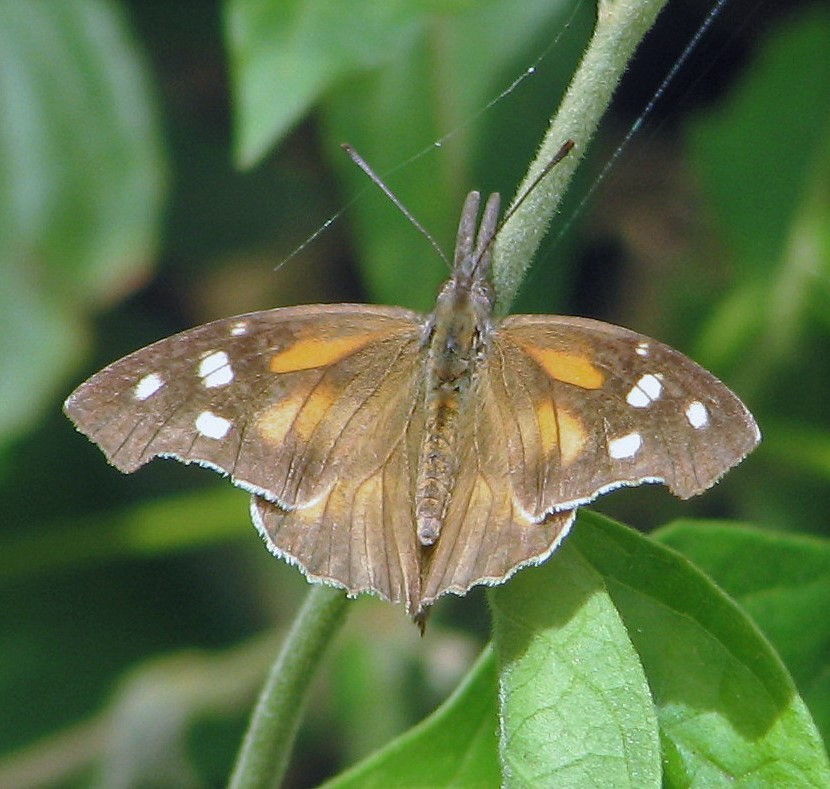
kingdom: Animalia
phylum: Arthropoda
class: Insecta
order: Lepidoptera
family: Nymphalidae
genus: Libytheana
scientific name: Libytheana carinenta
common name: American snout
